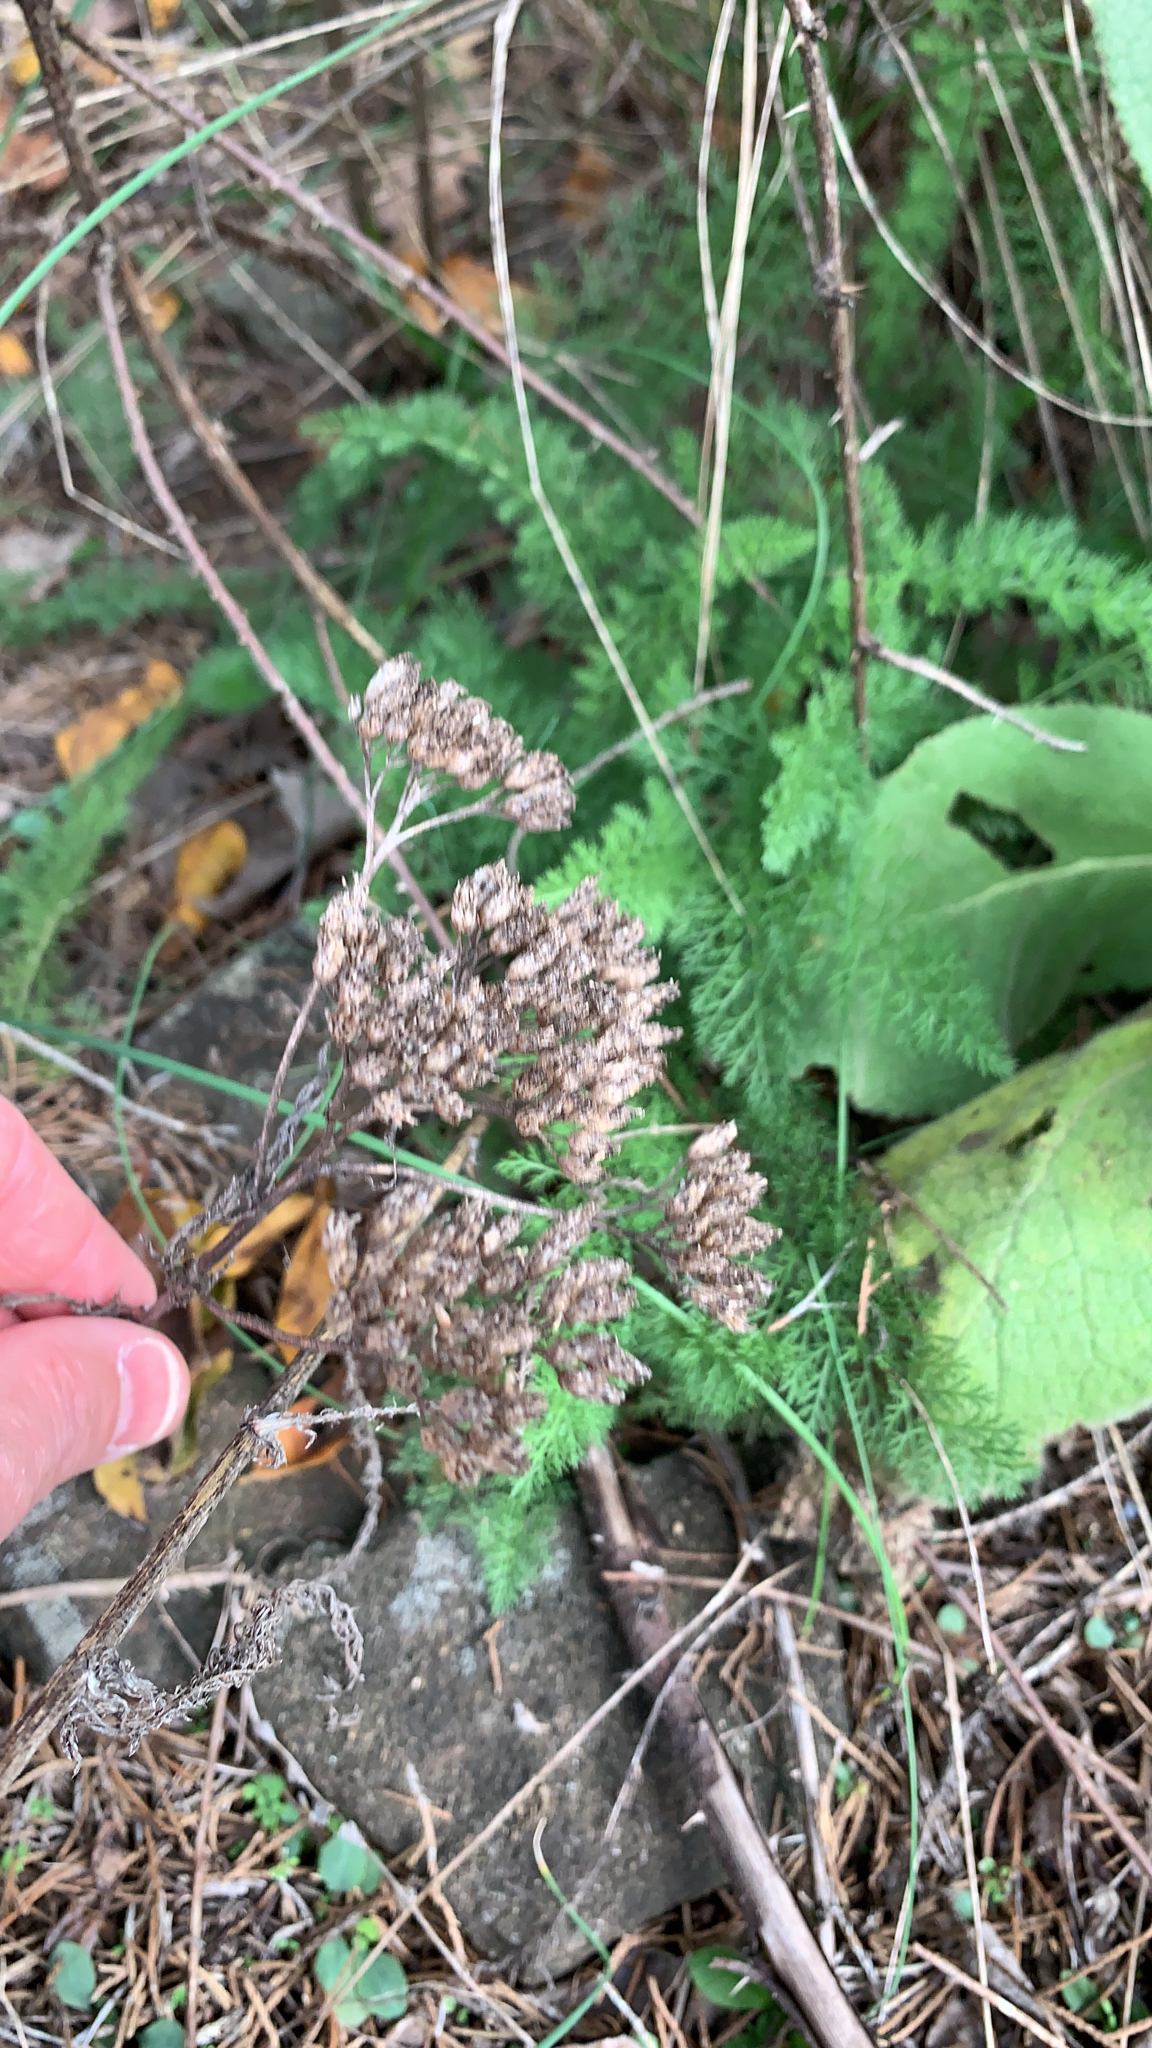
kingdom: Plantae
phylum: Tracheophyta
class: Magnoliopsida
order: Asterales
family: Asteraceae
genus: Achillea
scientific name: Achillea millefolium
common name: Yarrow
